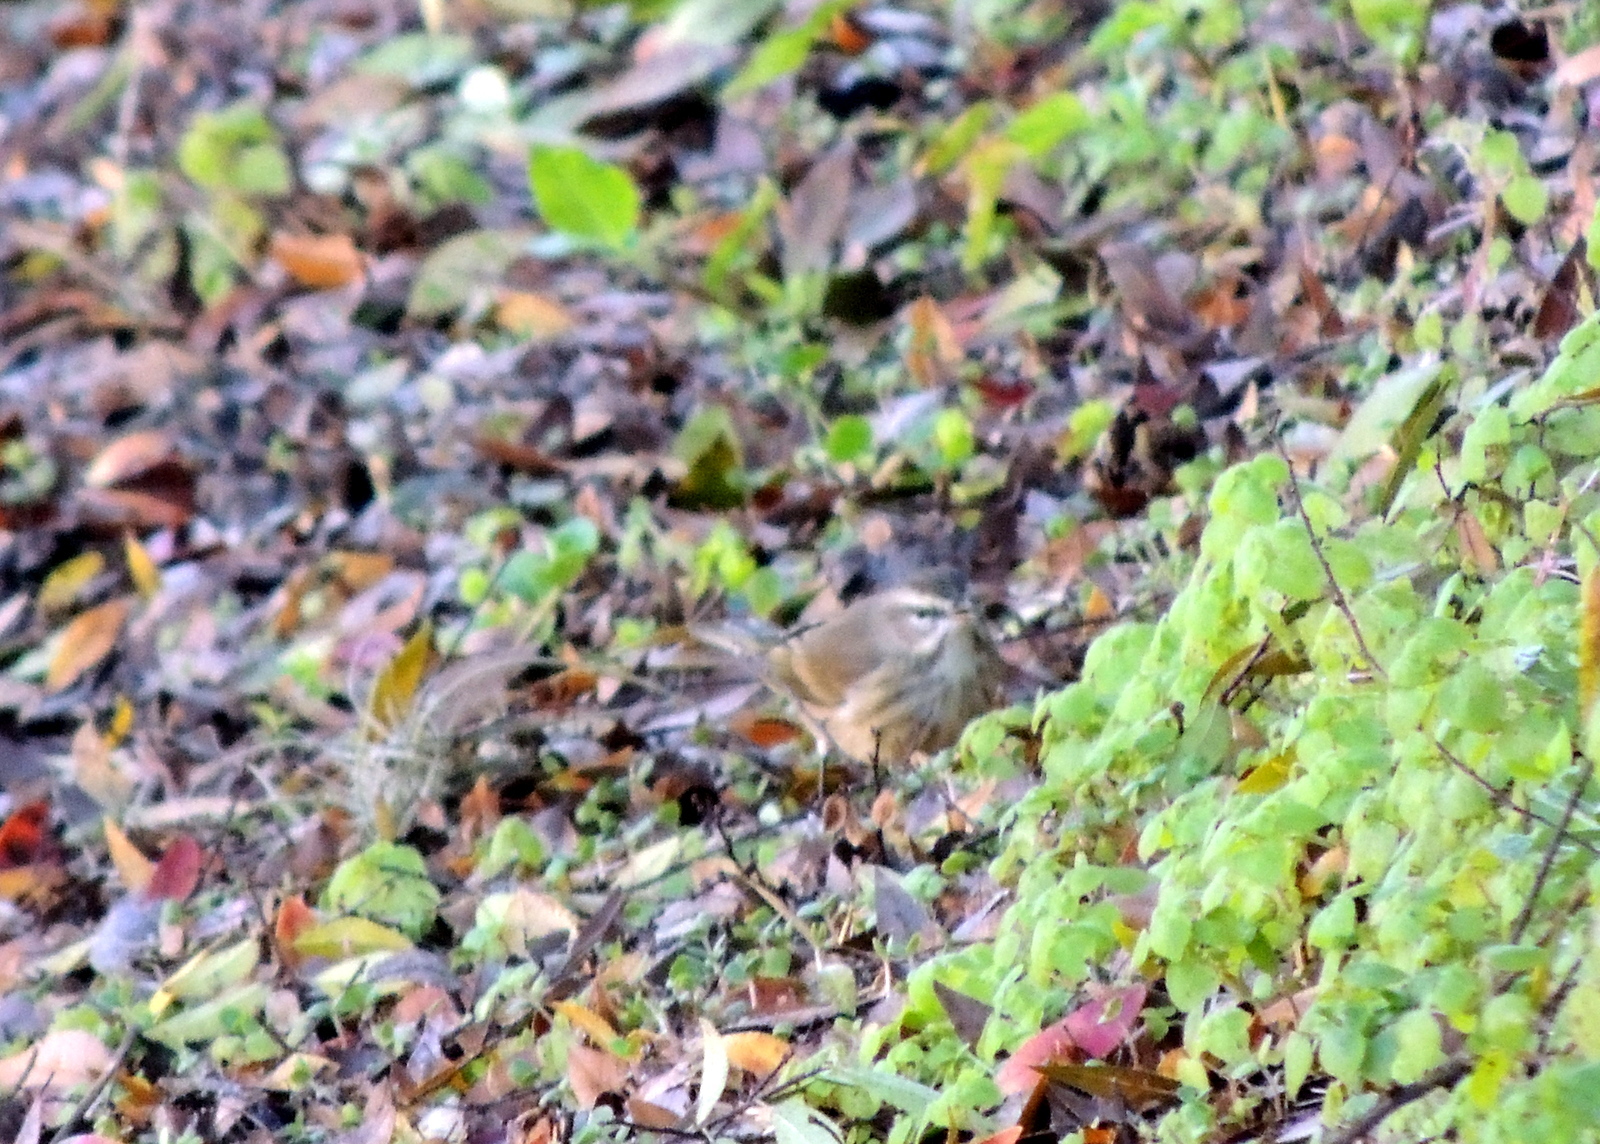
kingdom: Animalia
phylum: Chordata
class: Aves
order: Passeriformes
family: Parulidae
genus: Setophaga
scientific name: Setophaga palmarum
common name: Palm warbler
